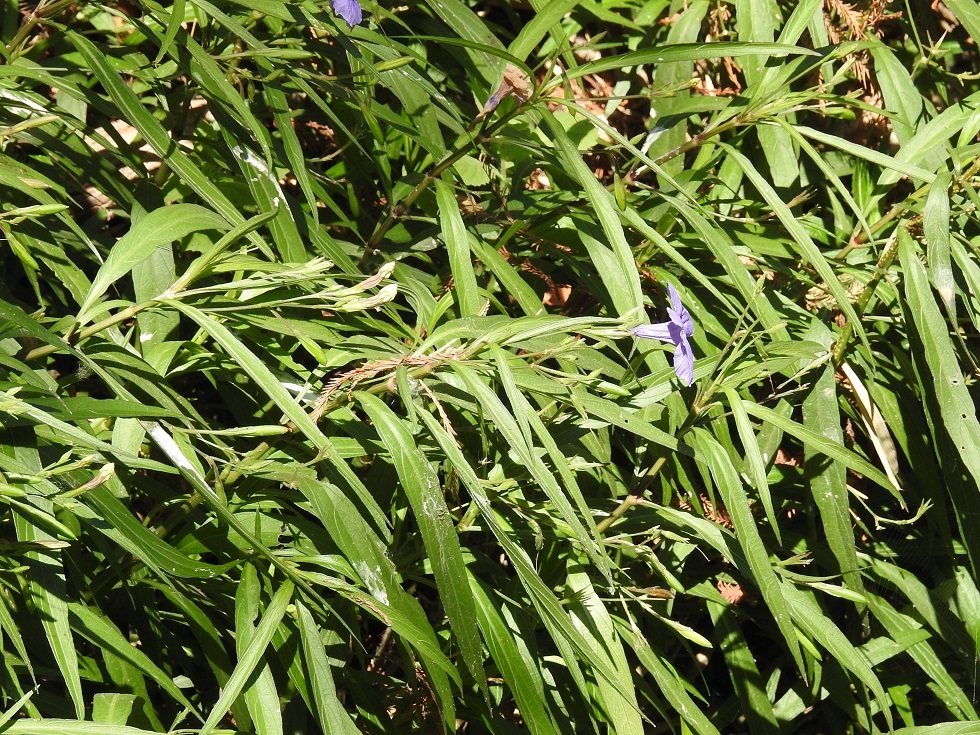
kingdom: Plantae
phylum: Tracheophyta
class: Magnoliopsida
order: Lamiales
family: Acanthaceae
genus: Ruellia
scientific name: Ruellia simplex
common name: Softseed wild petunia
